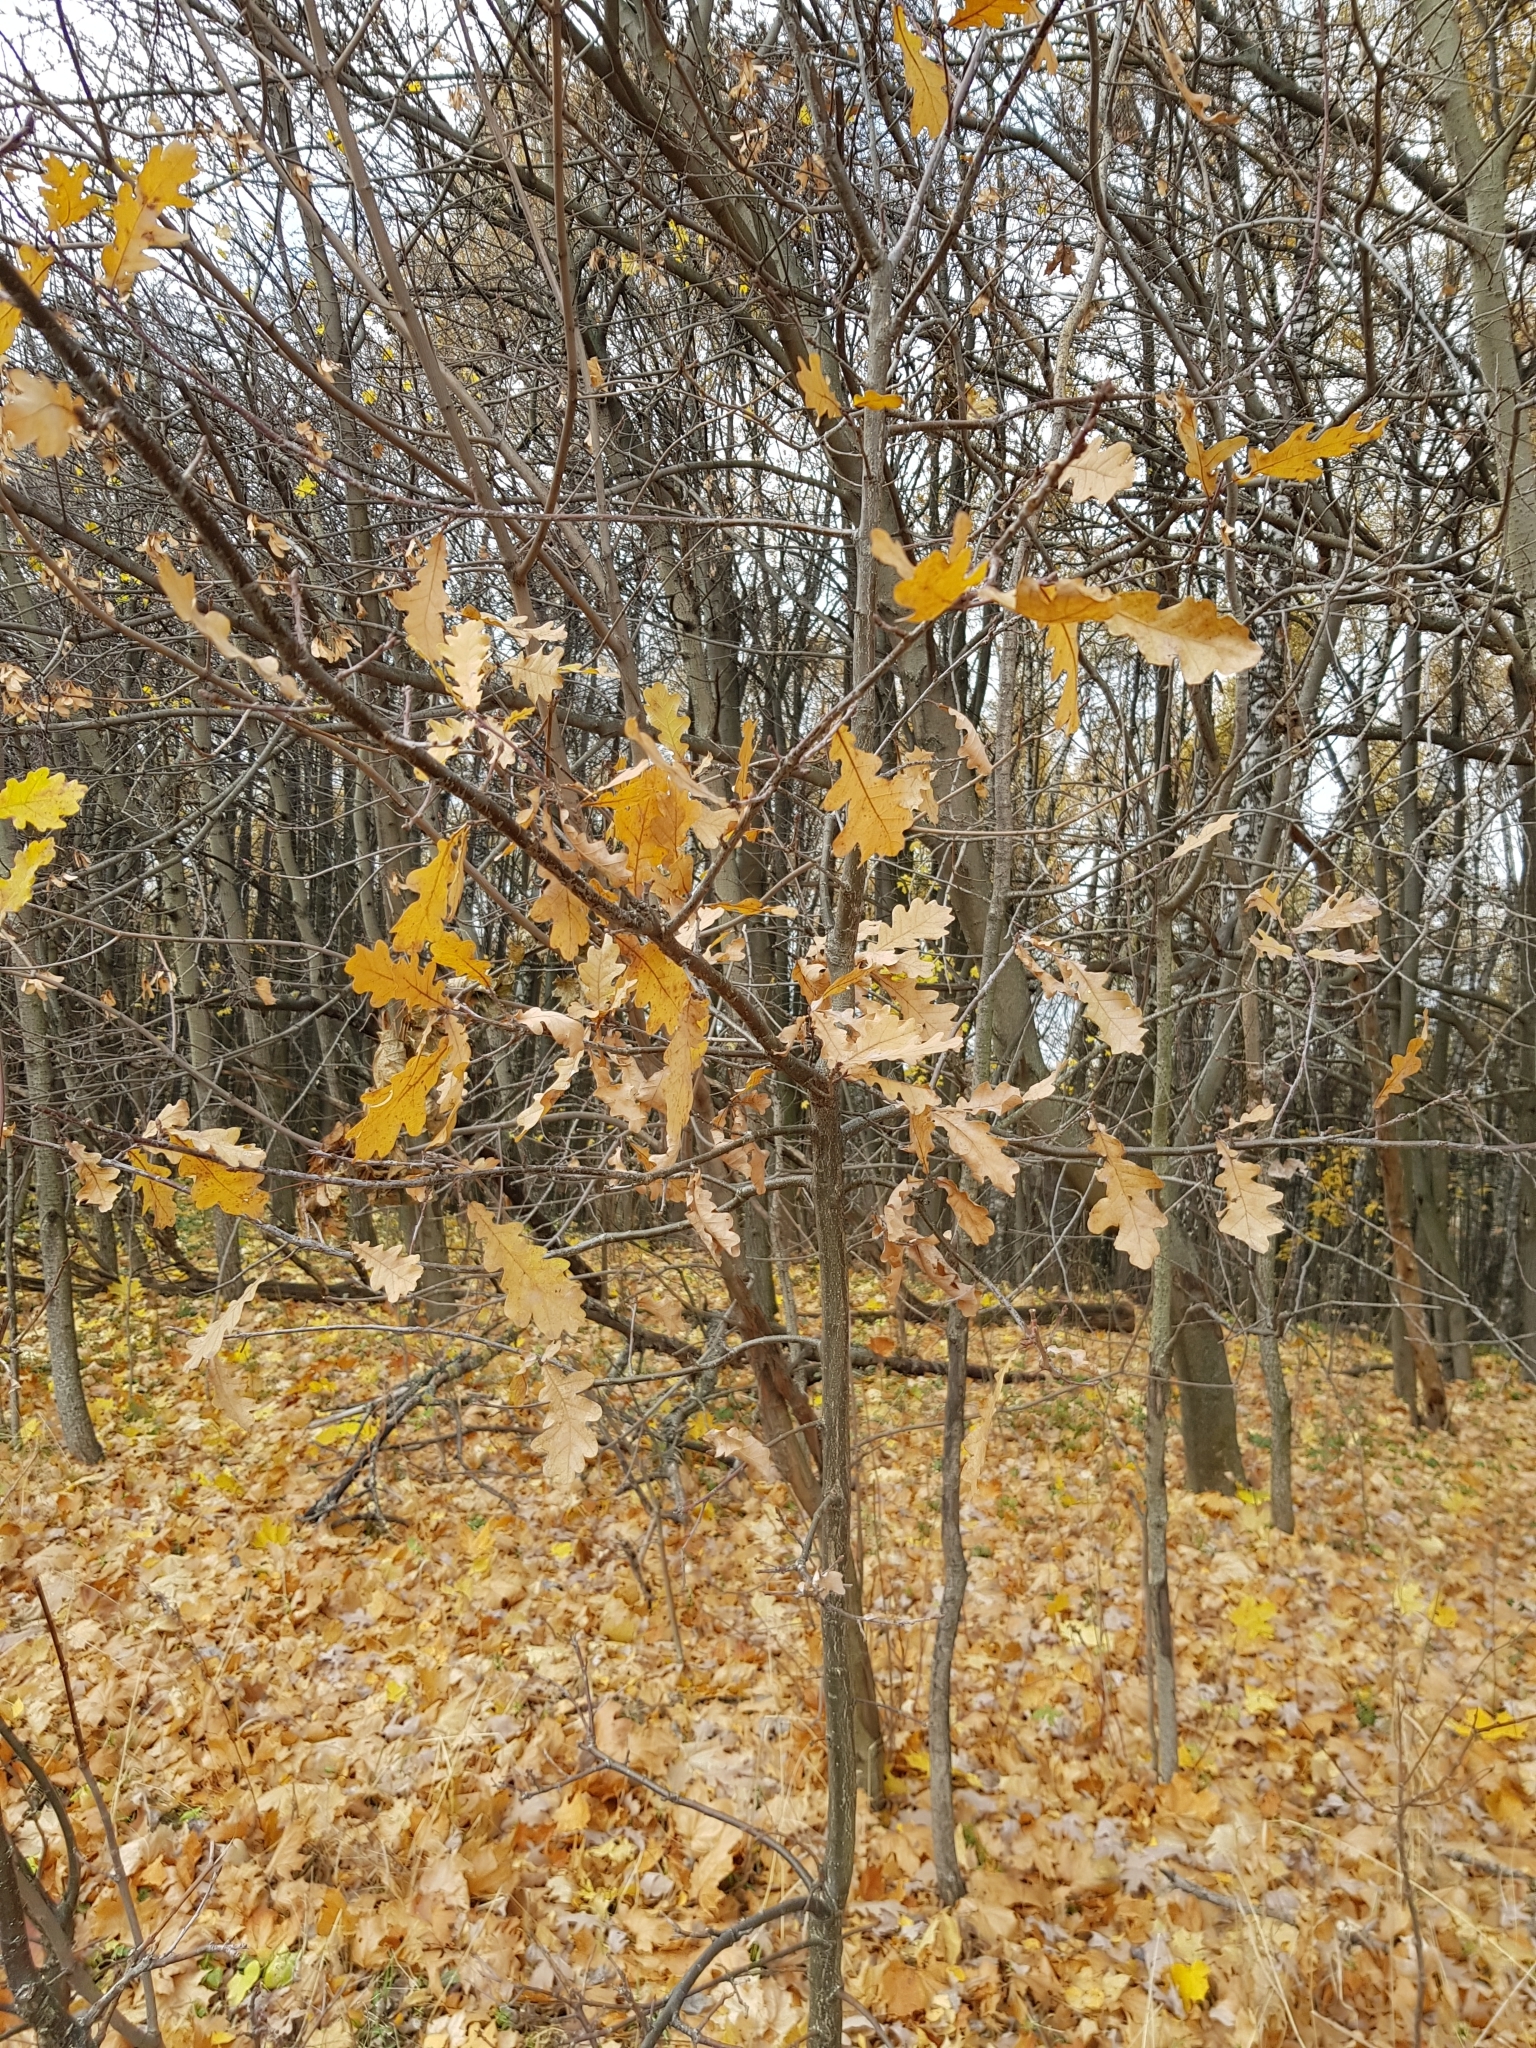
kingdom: Plantae
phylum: Tracheophyta
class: Magnoliopsida
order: Fagales
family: Fagaceae
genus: Quercus
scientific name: Quercus robur
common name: Pedunculate oak
